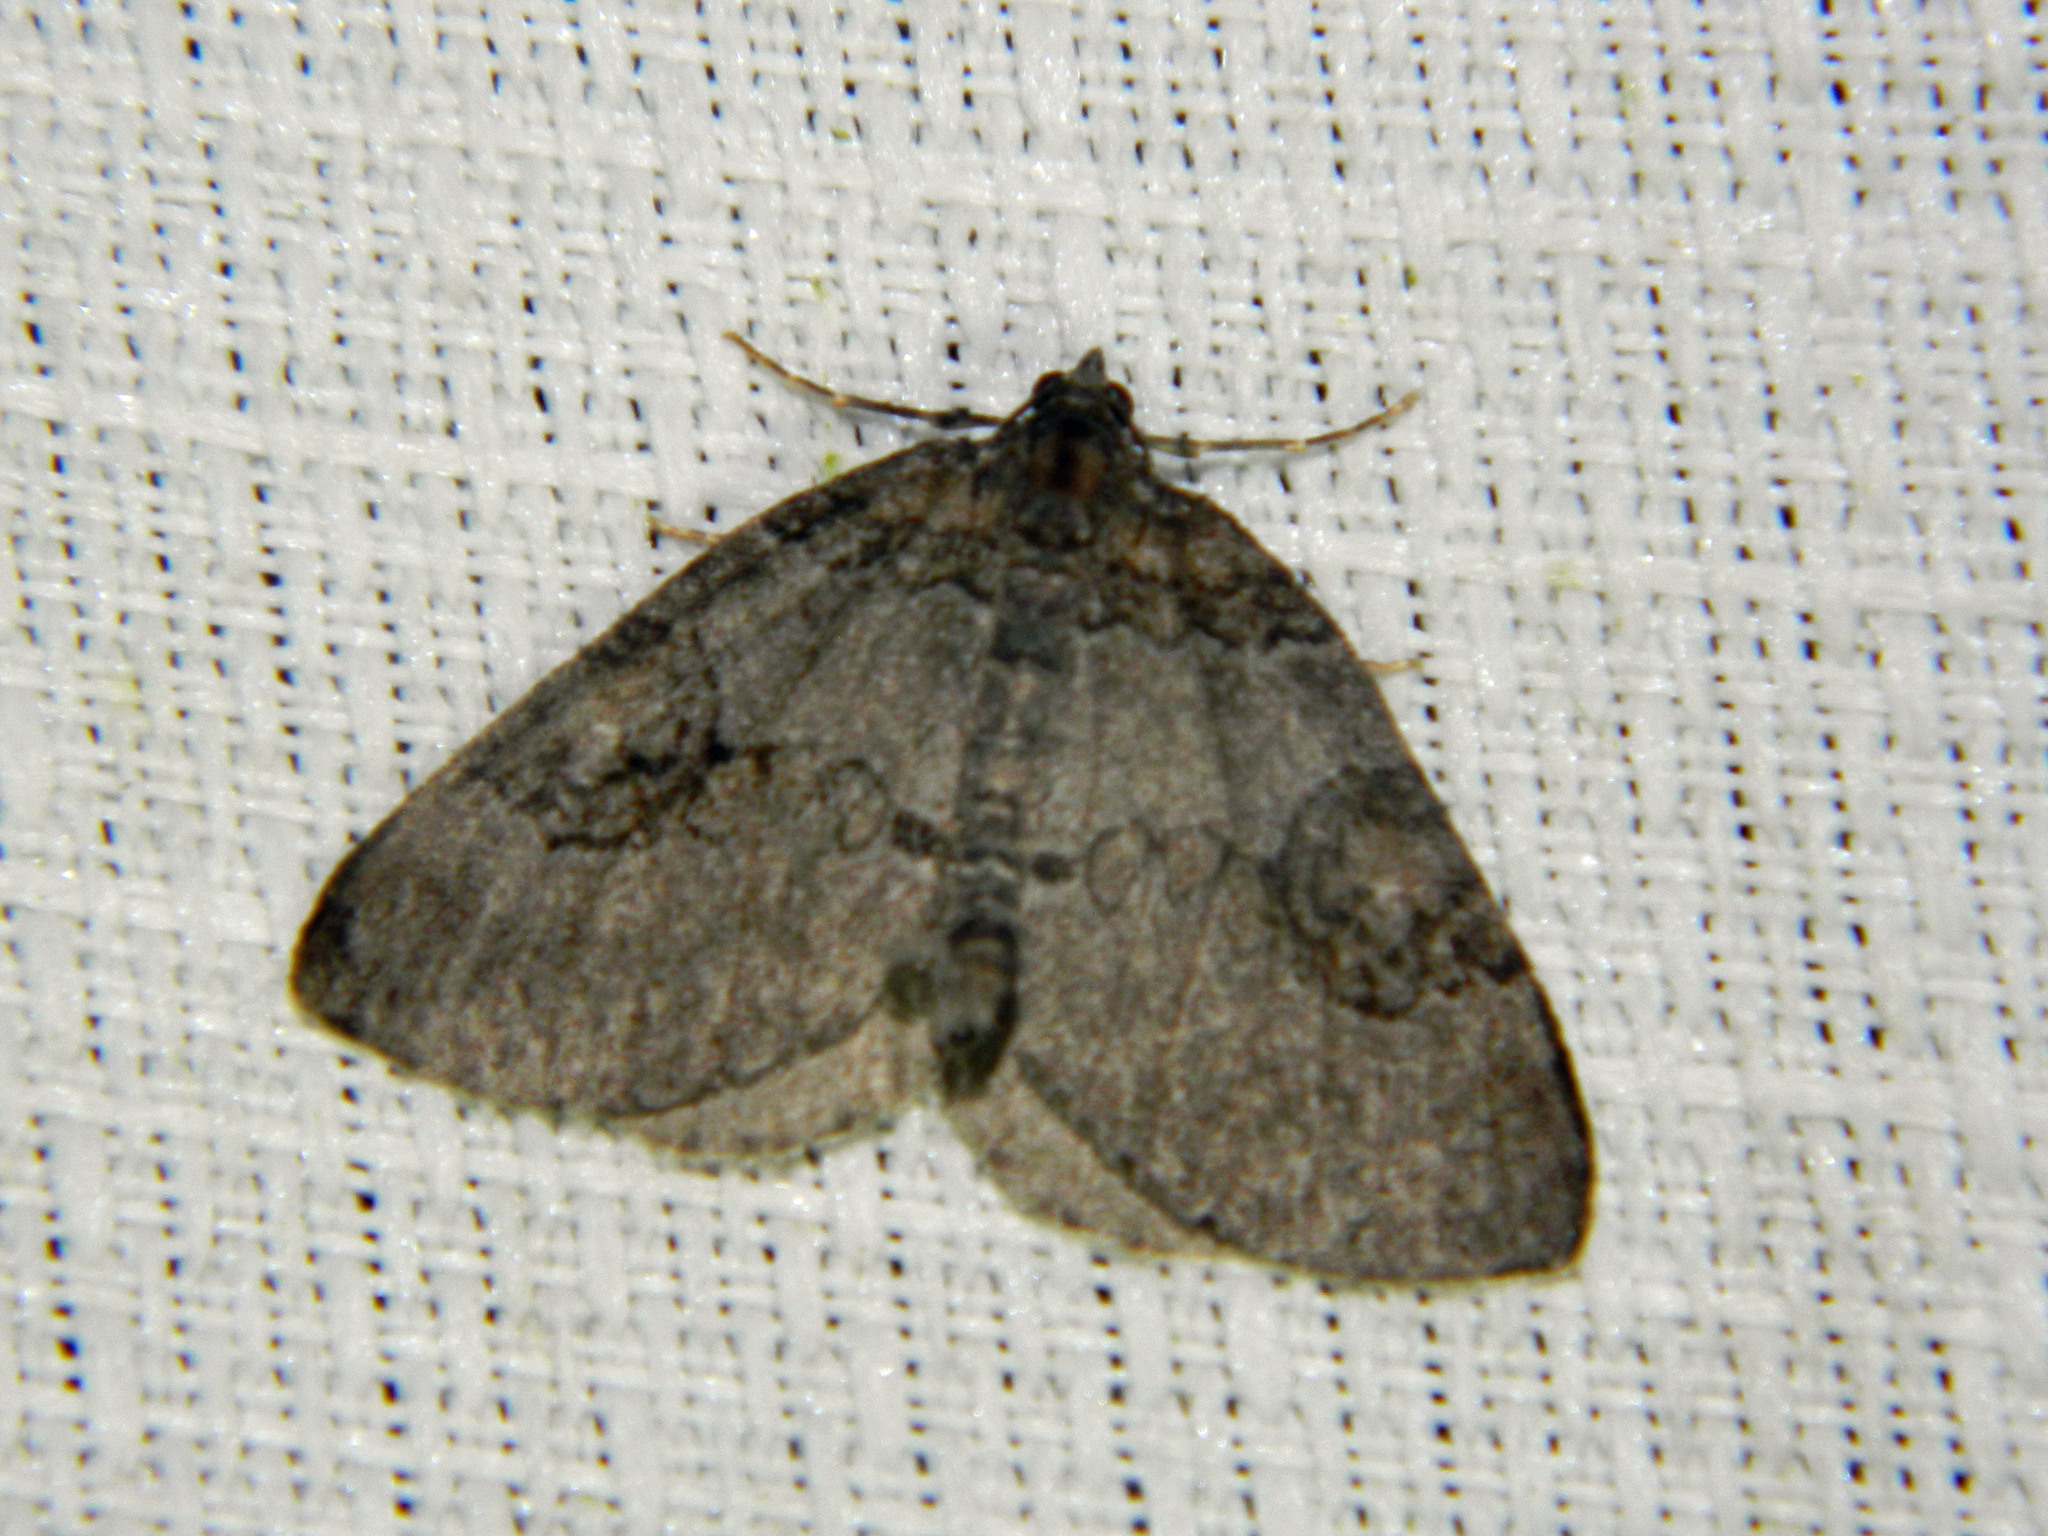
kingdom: Animalia
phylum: Arthropoda
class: Insecta
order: Lepidoptera
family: Geometridae
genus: Plemyria
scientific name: Plemyria georgii
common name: George's carpet moth
